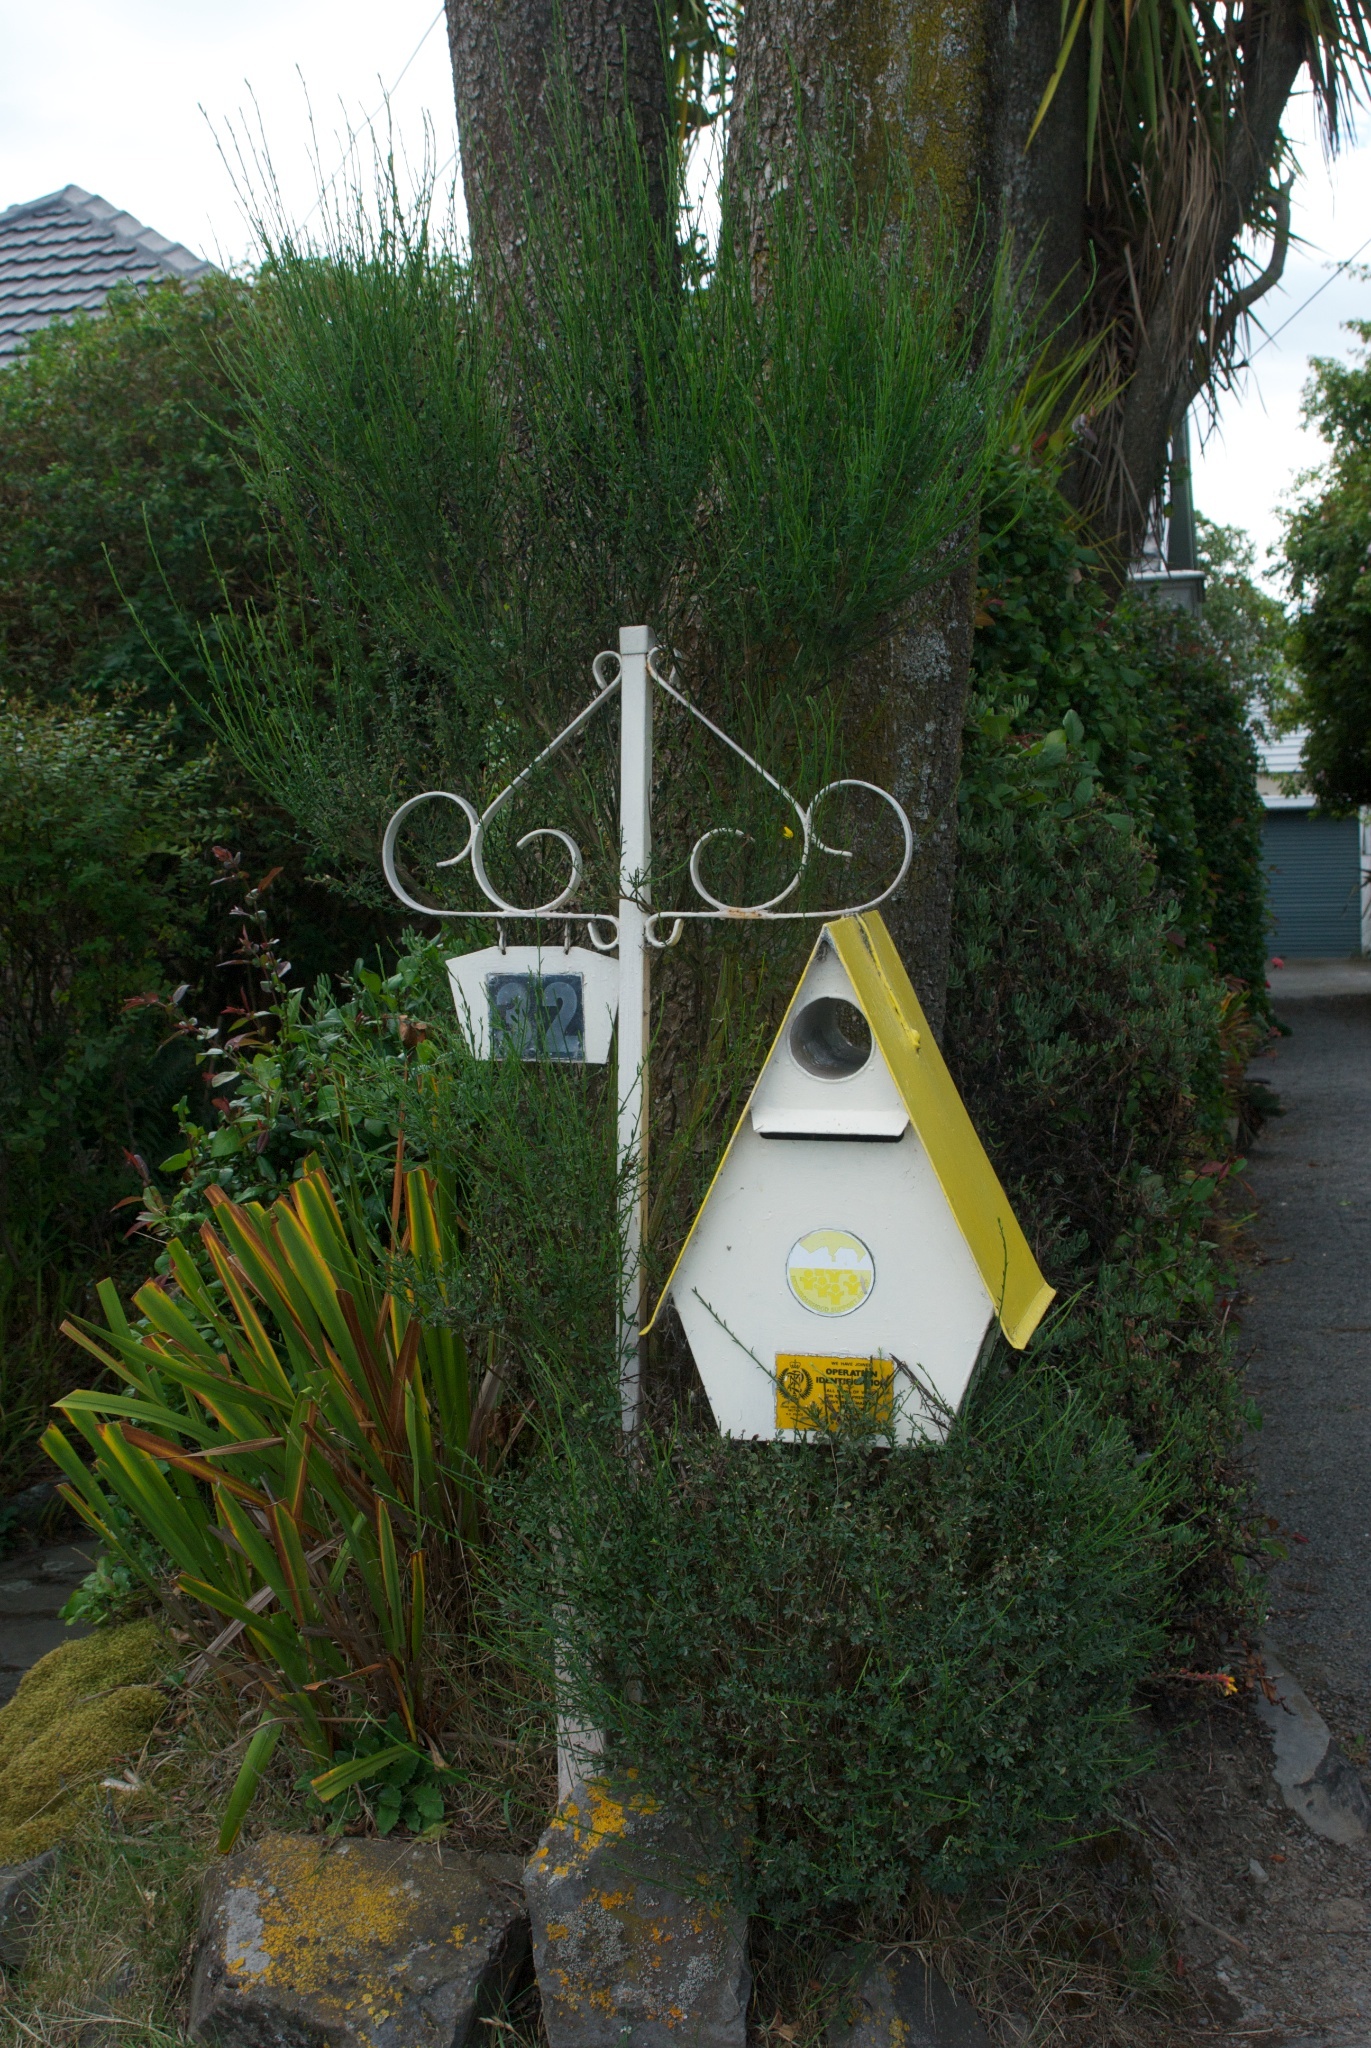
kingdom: Plantae
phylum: Tracheophyta
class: Magnoliopsida
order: Fabales
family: Fabaceae
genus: Cytisus
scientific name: Cytisus scoparius
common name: Scotch broom
